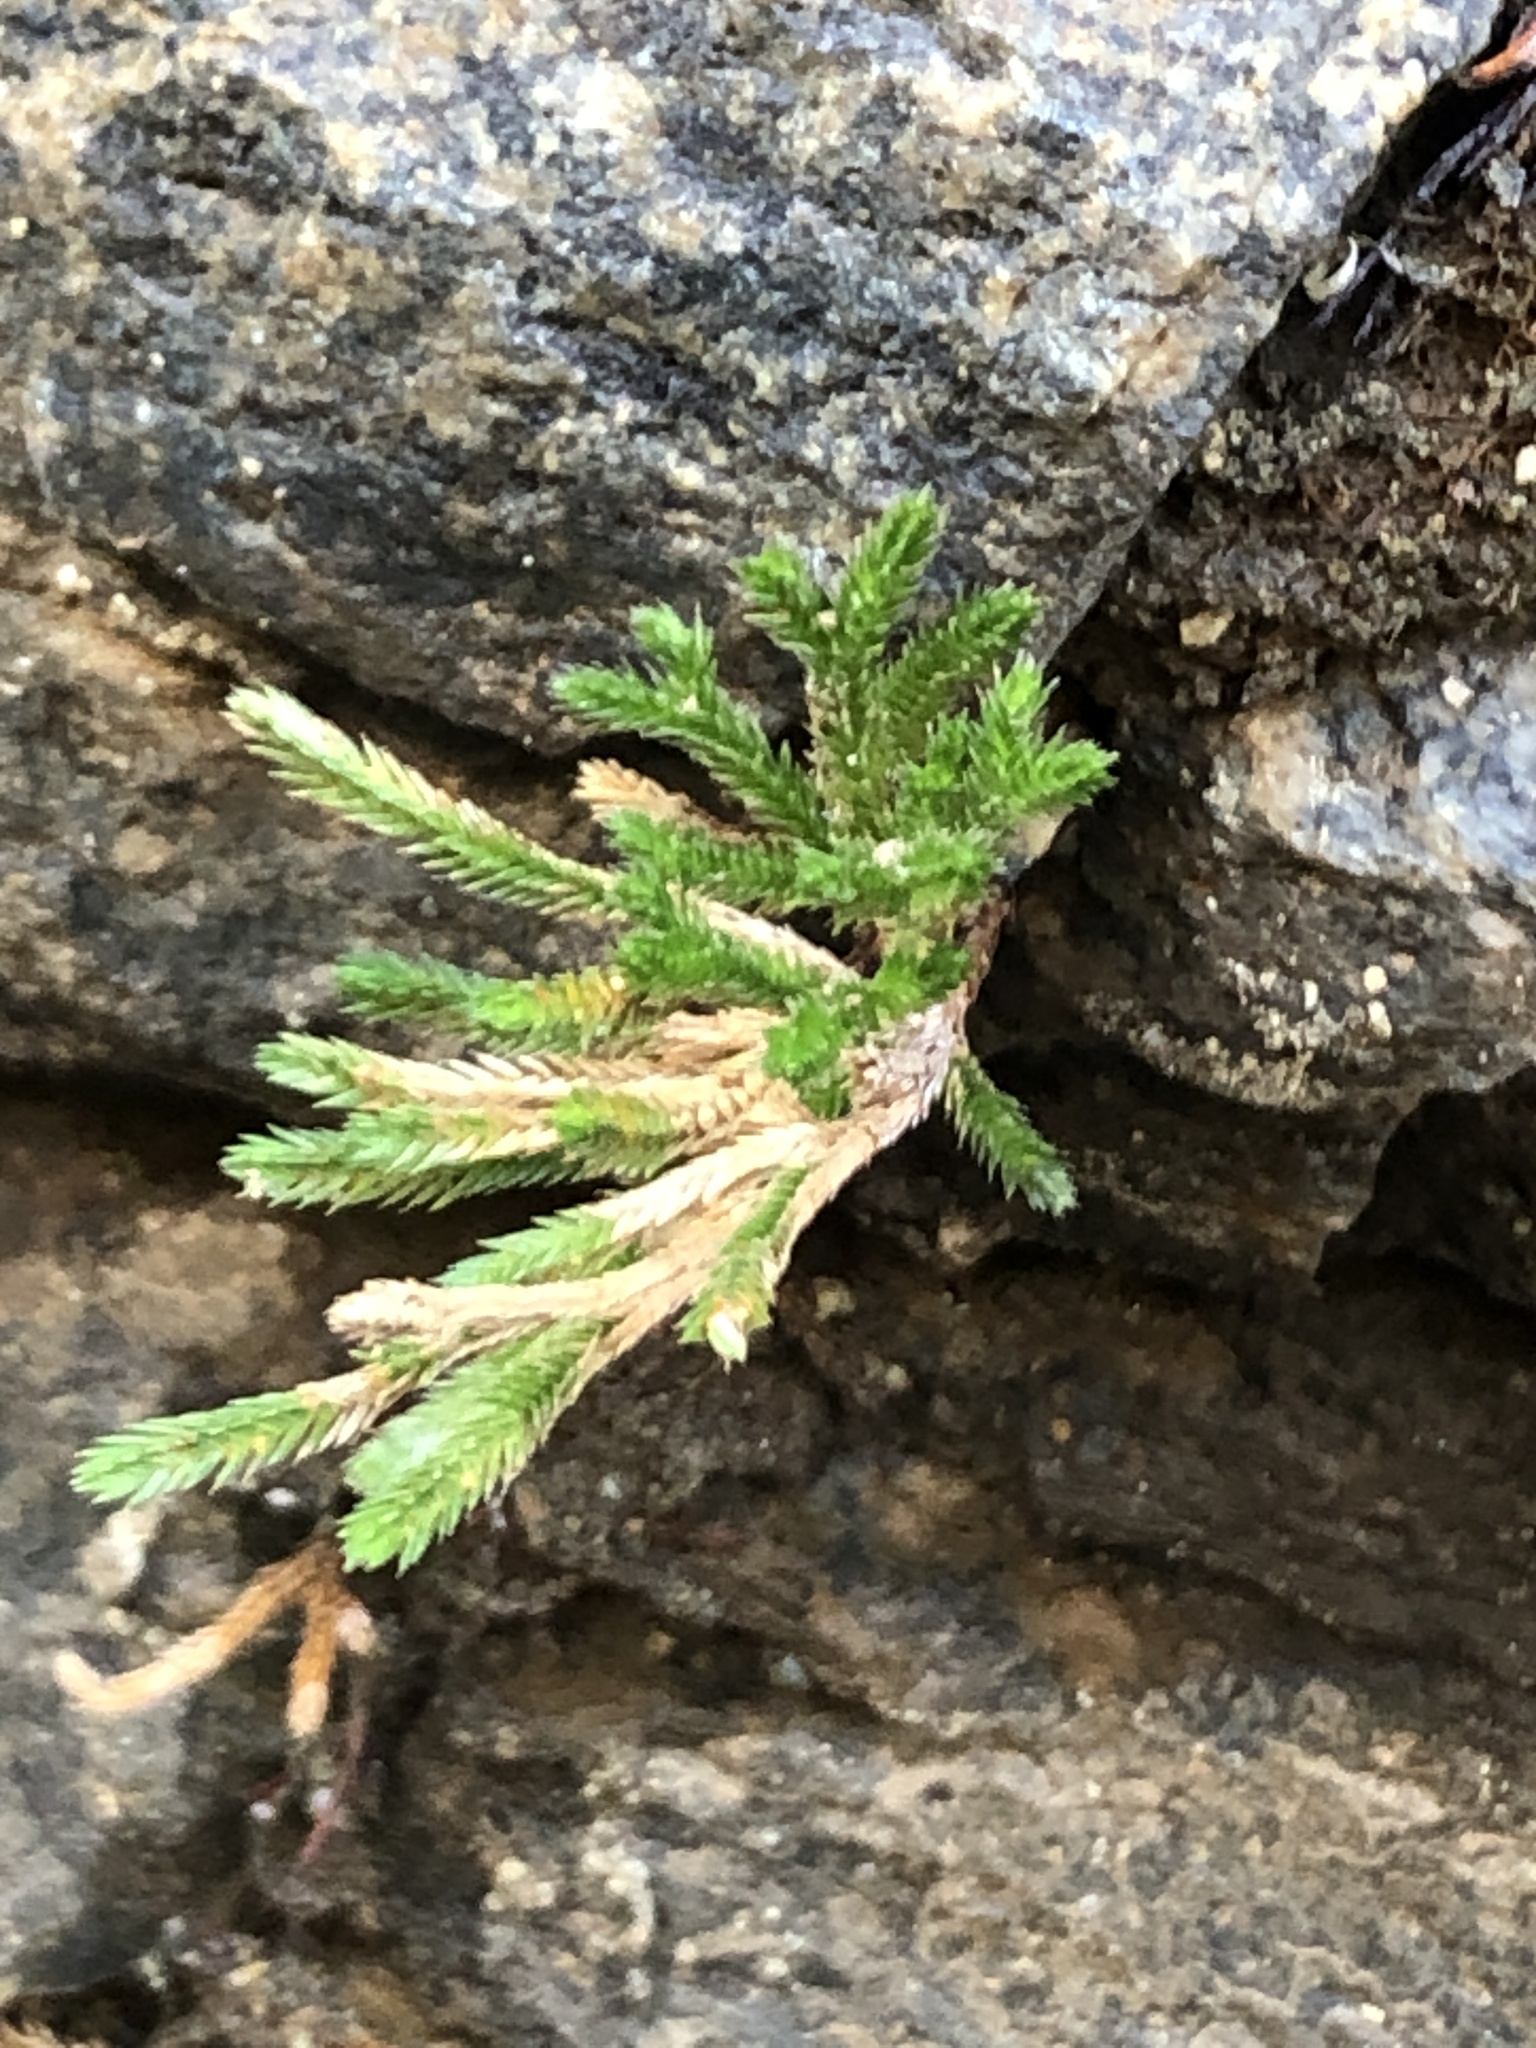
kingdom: Plantae
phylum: Tracheophyta
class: Lycopodiopsida
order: Selaginellales
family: Selaginellaceae
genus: Selaginella
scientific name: Selaginella bigelovii
